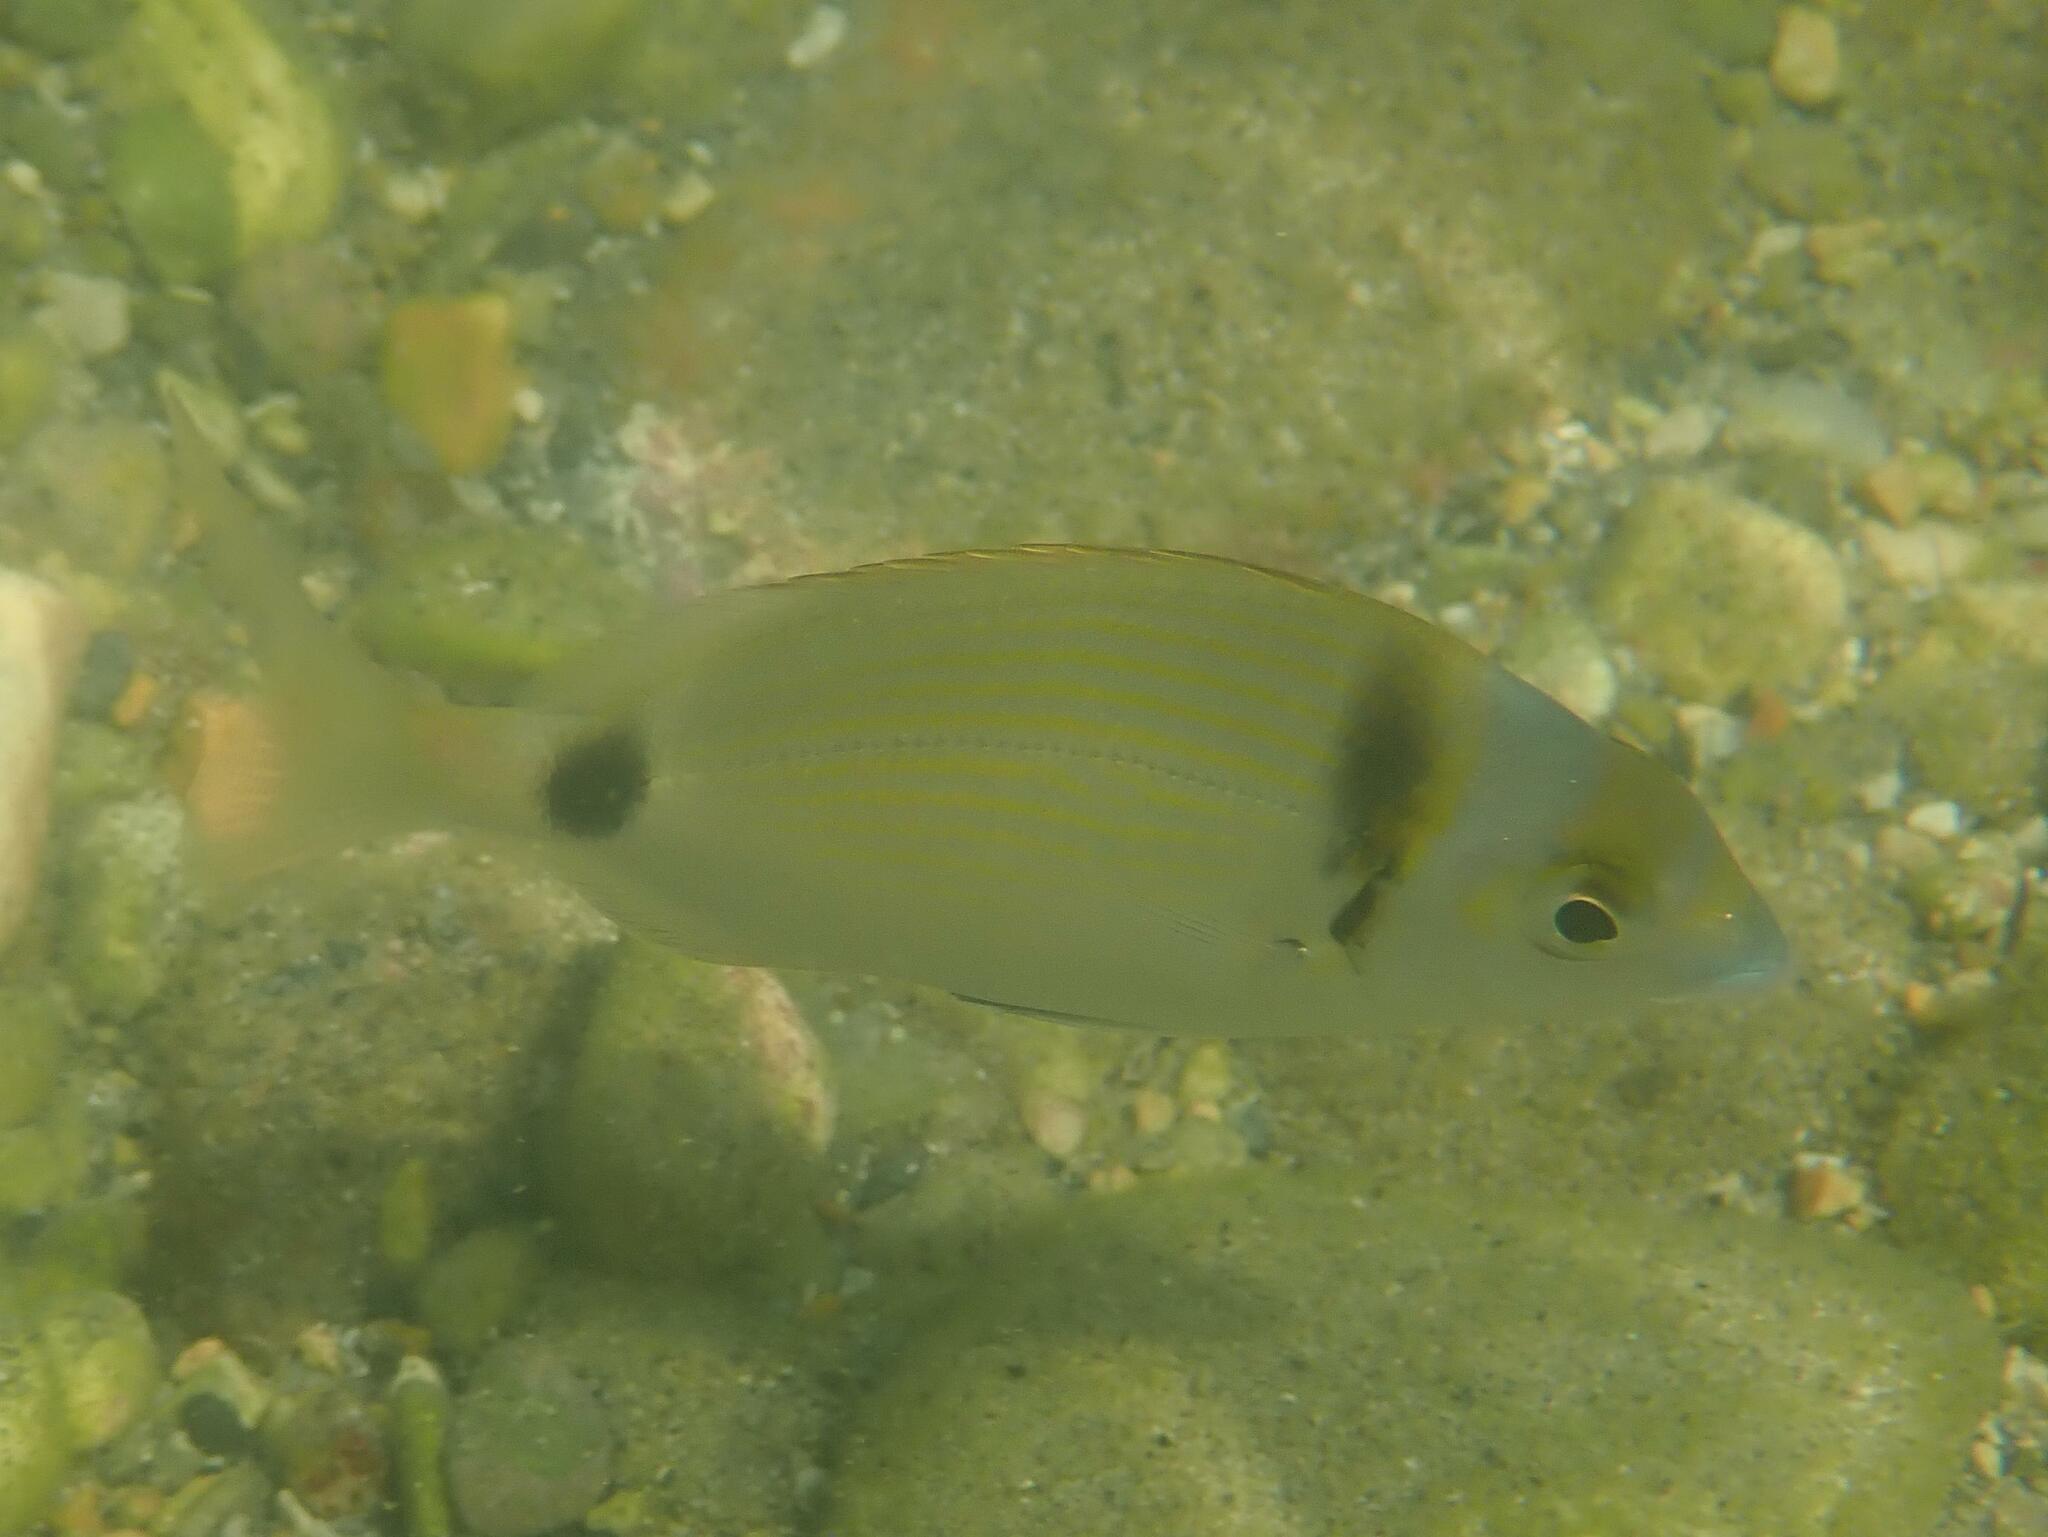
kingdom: Animalia
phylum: Chordata
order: Perciformes
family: Sparidae
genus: Diplodus
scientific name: Diplodus vulgaris
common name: Common two-banded seabream
